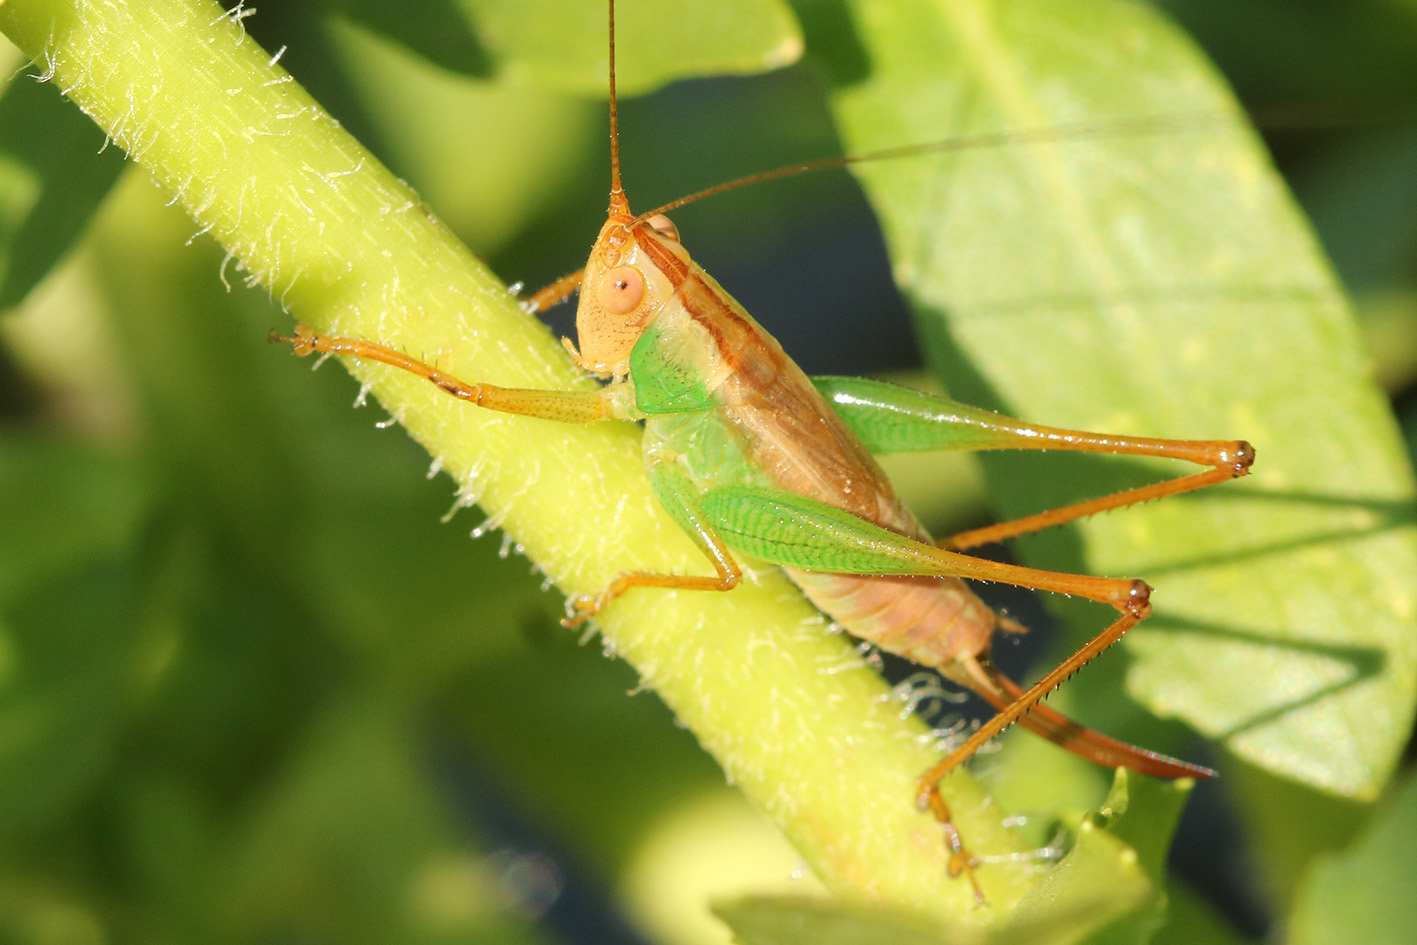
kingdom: Animalia
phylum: Arthropoda
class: Insecta
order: Orthoptera
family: Tettigoniidae
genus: Conocephalus
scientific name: Conocephalus cinnamonifrons
